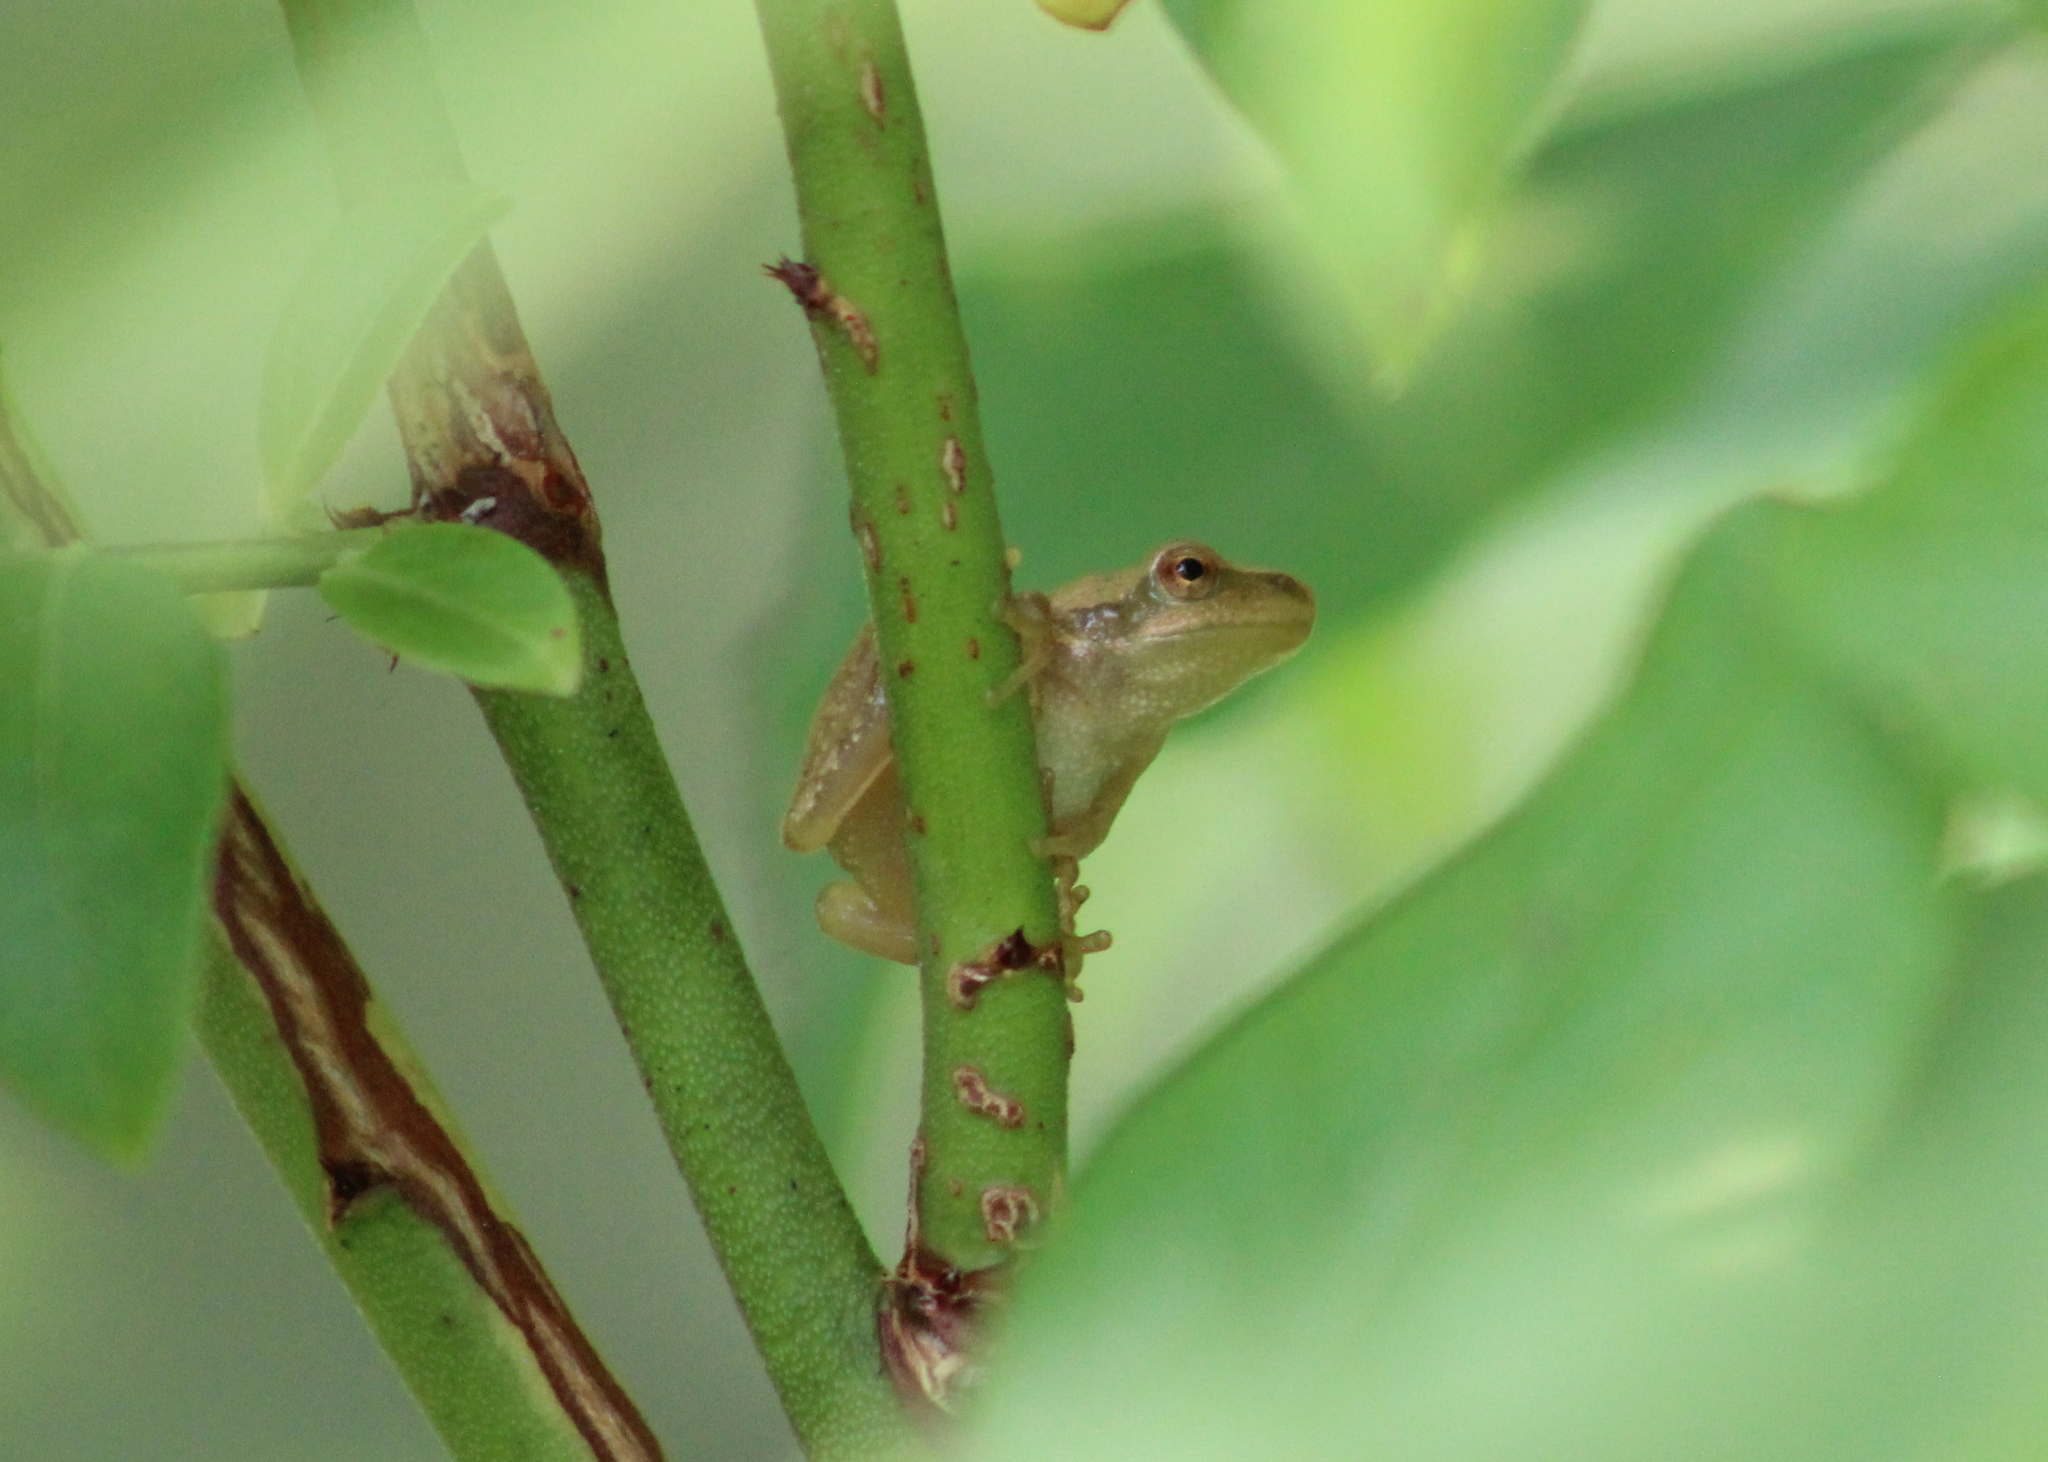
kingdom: Animalia
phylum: Chordata
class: Amphibia
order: Anura
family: Hylidae
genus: Pseudacris
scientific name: Pseudacris crucifer
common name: Spring peeper
